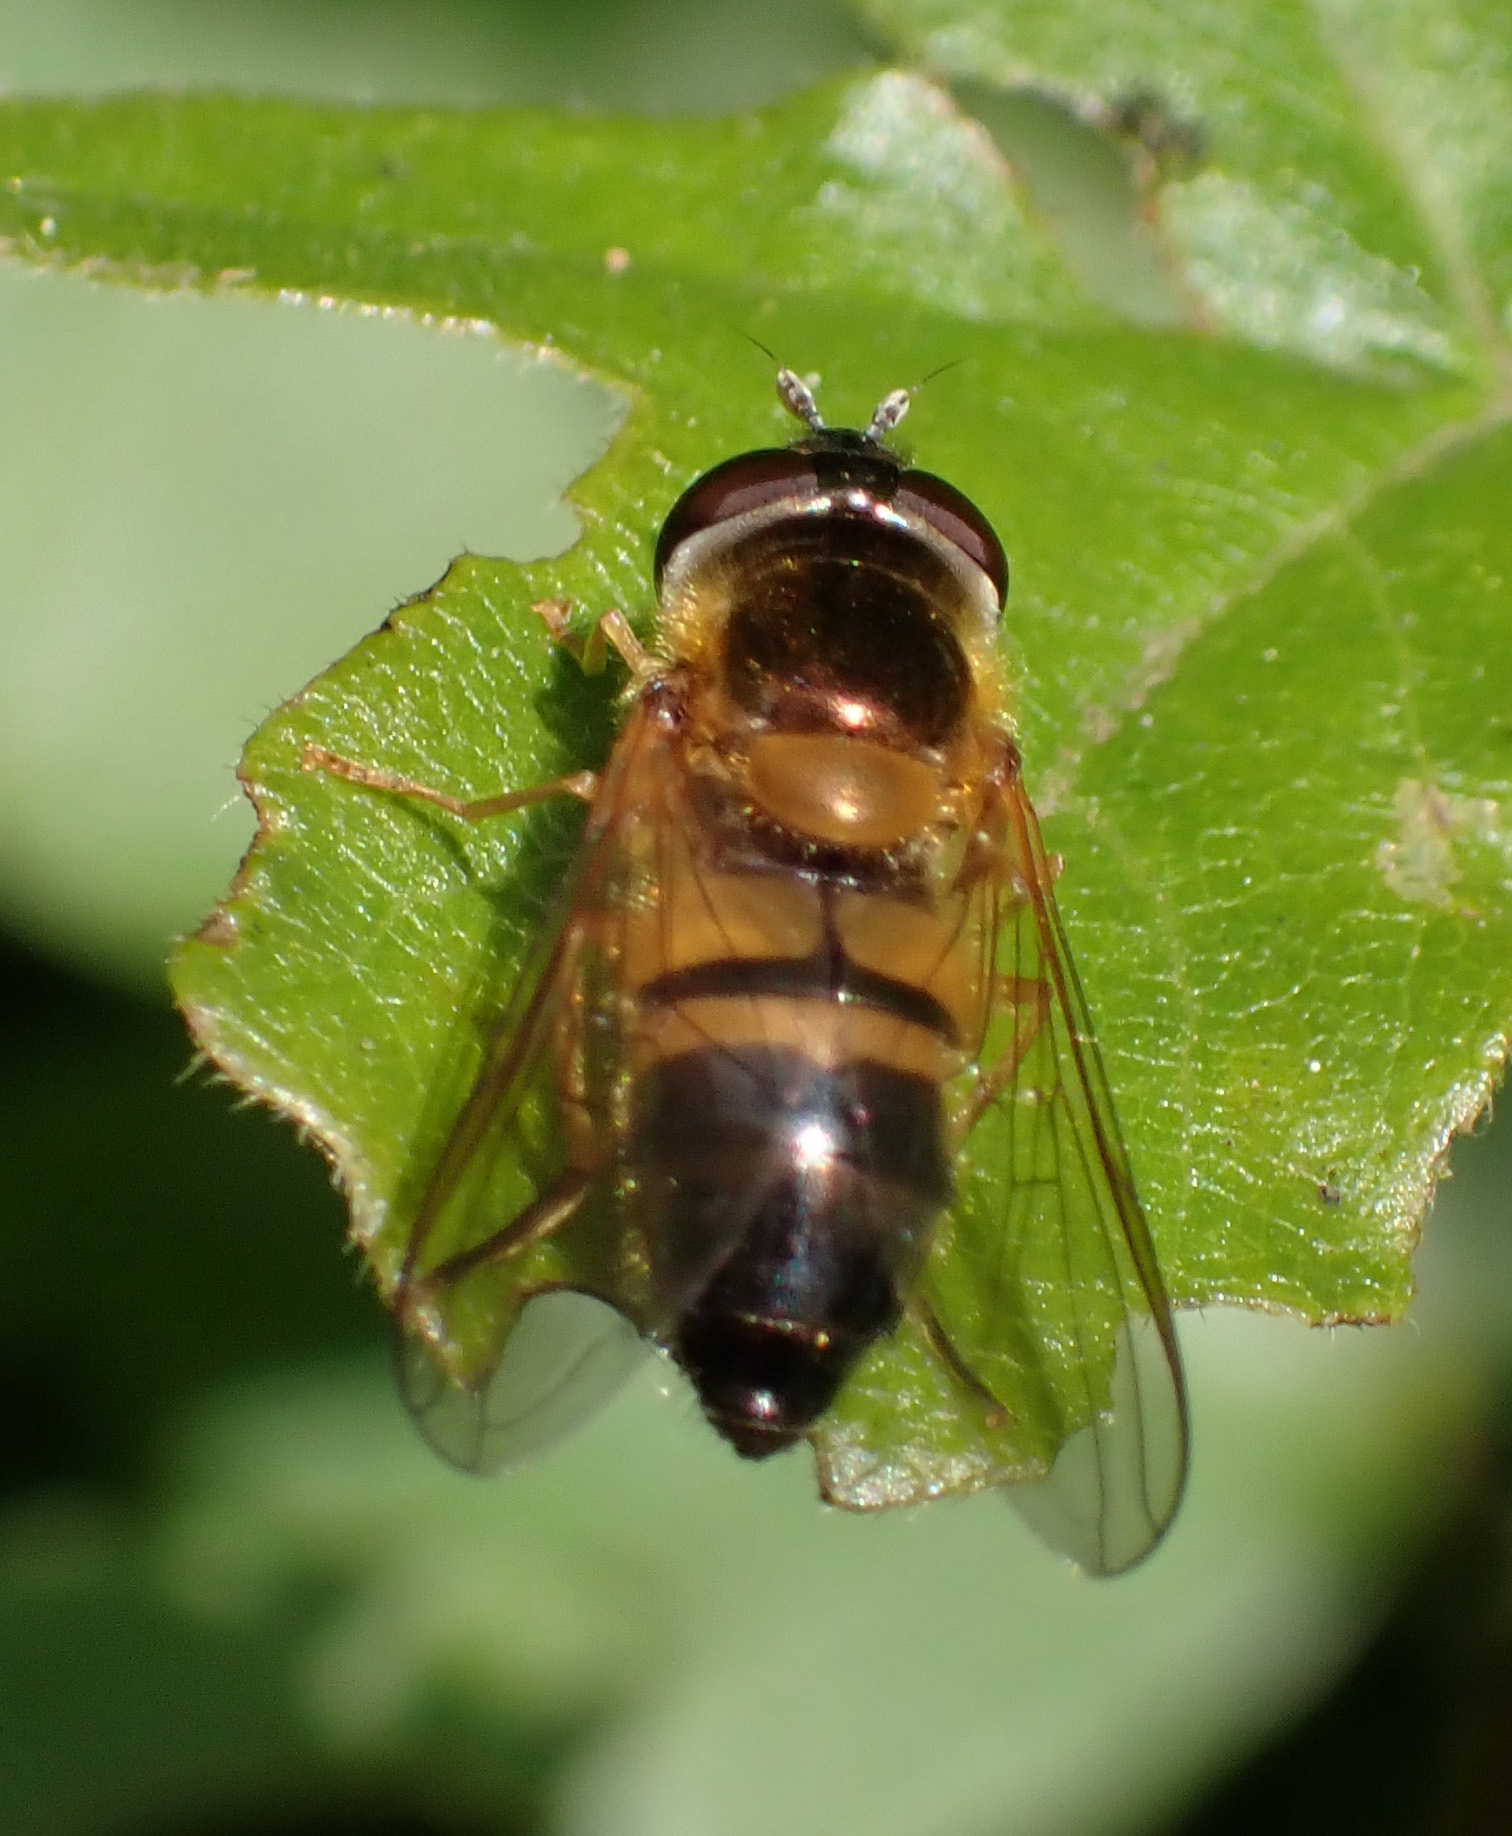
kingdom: Animalia
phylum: Arthropoda
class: Insecta
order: Diptera
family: Syrphidae
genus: Epistrophe
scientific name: Epistrophe eligans
